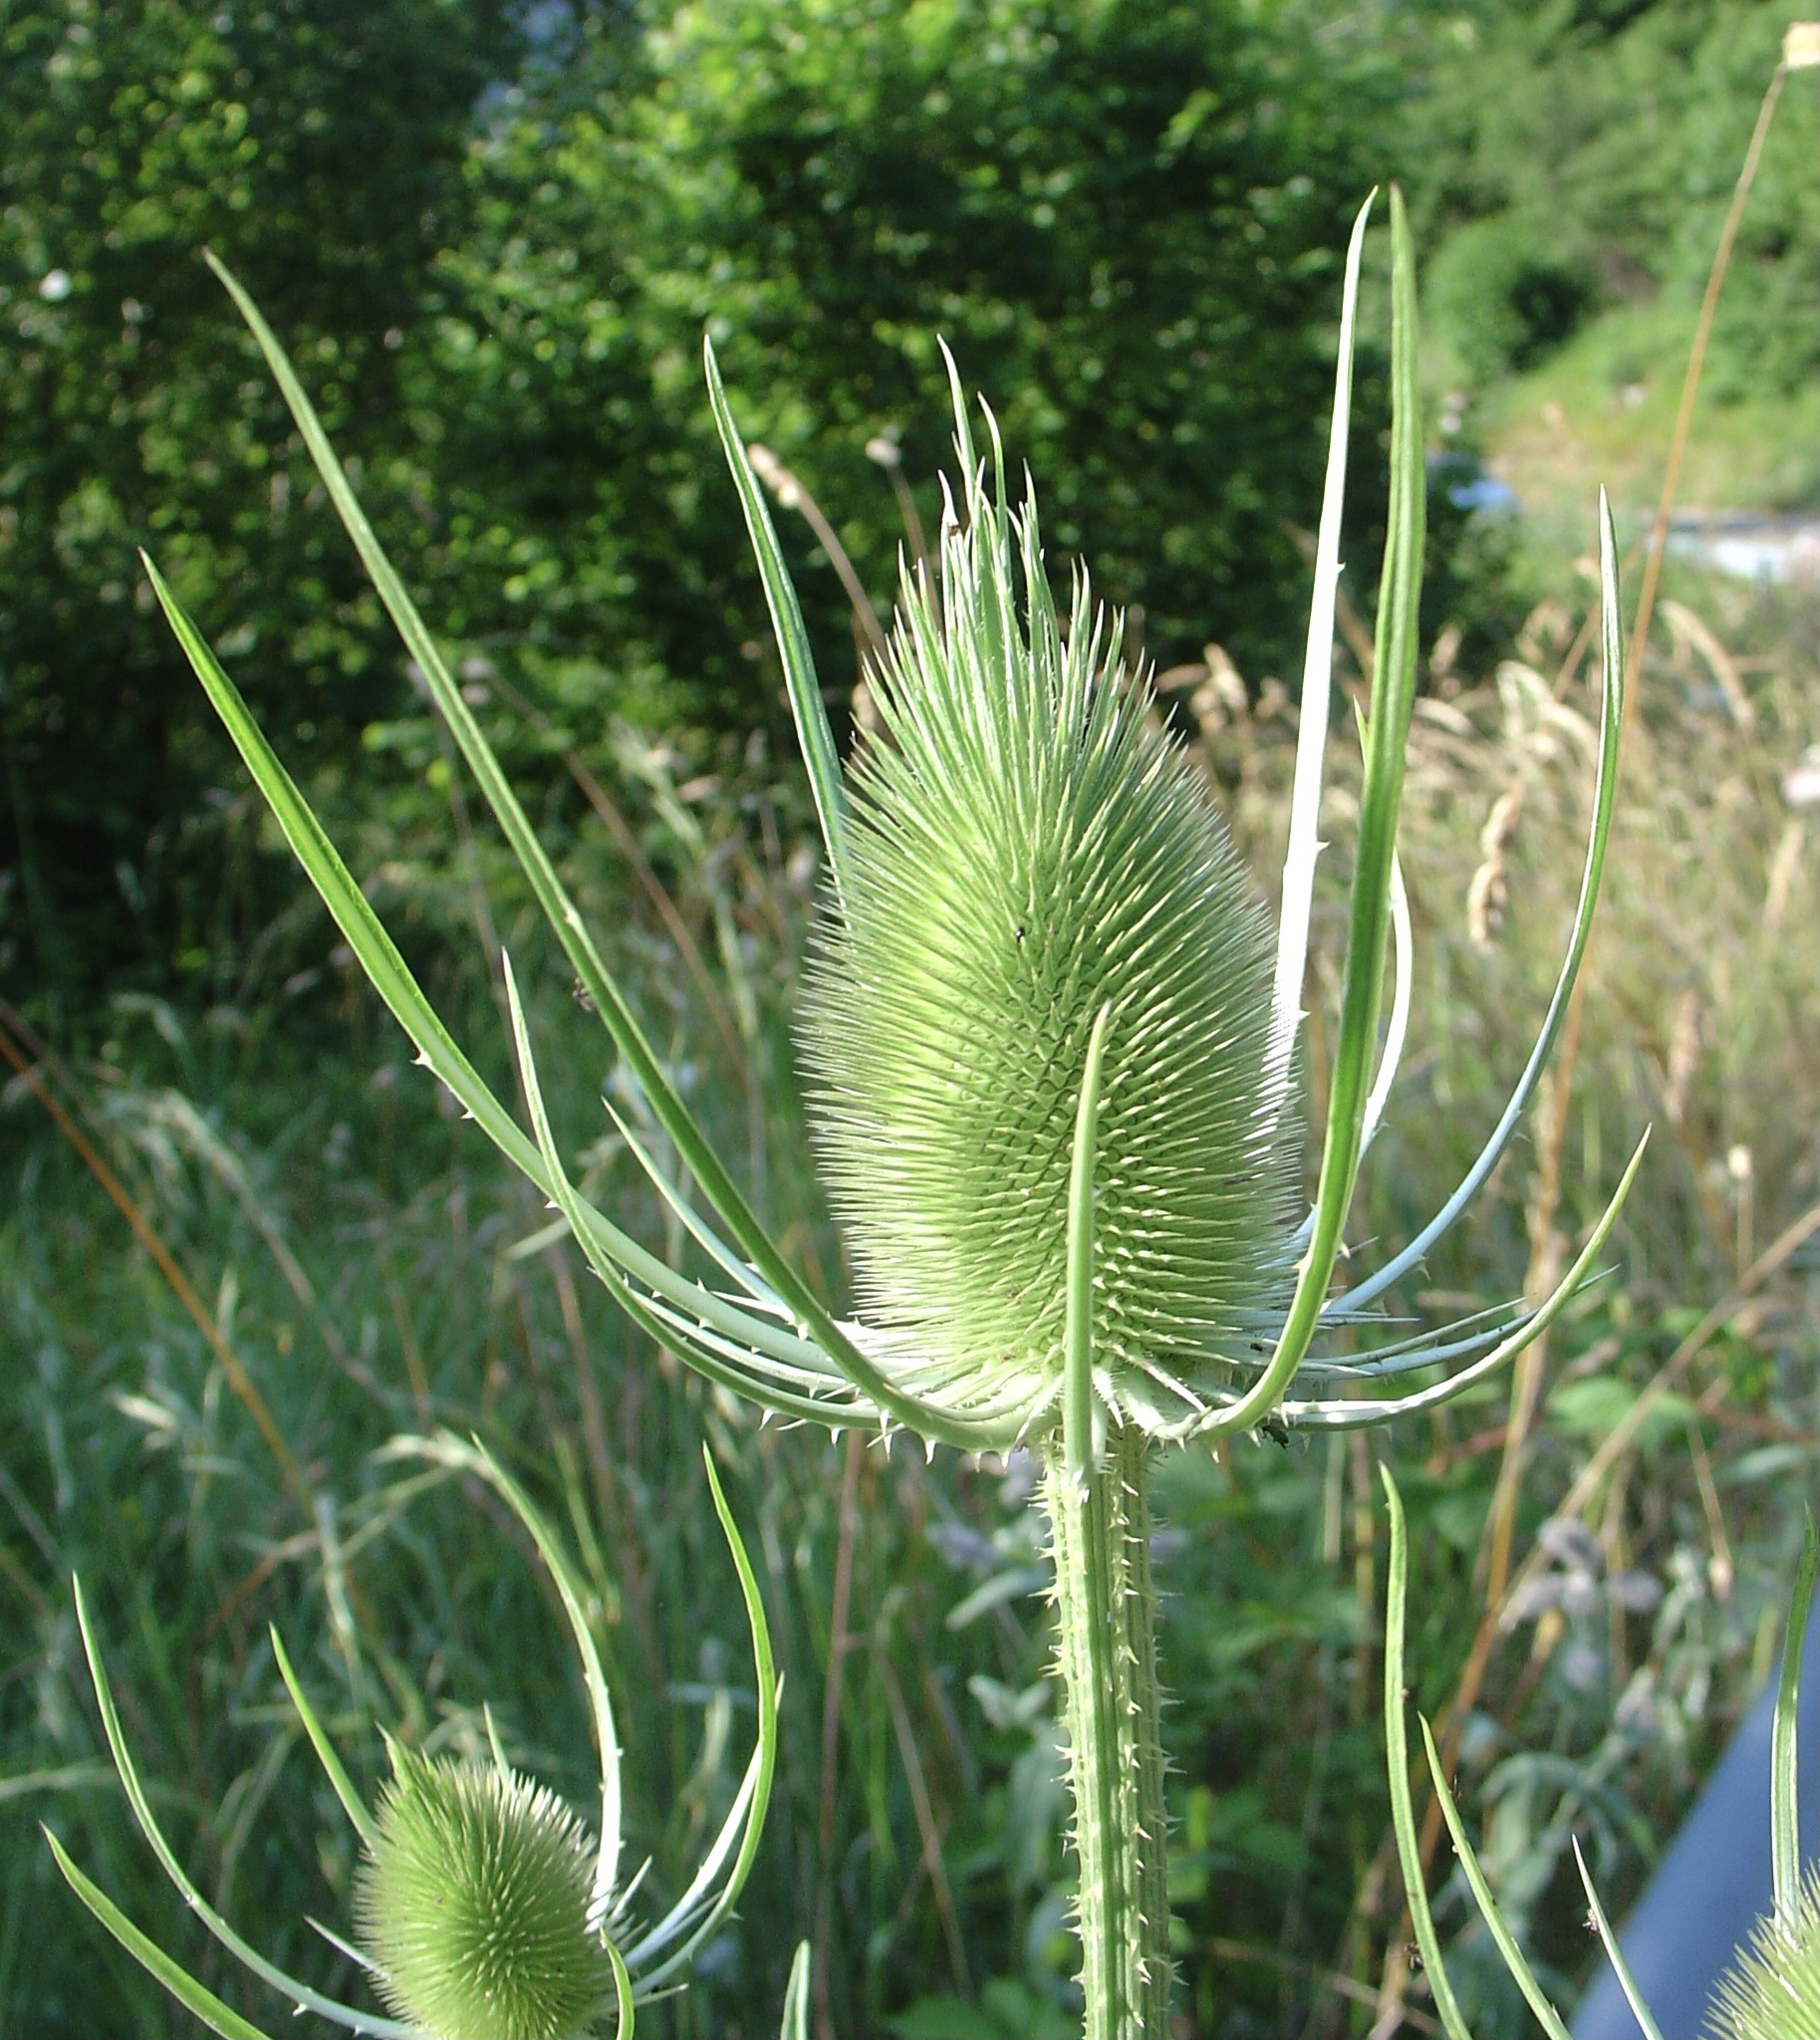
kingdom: Plantae
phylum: Tracheophyta
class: Magnoliopsida
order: Dipsacales
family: Caprifoliaceae
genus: Dipsacus
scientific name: Dipsacus fullonum
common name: Teasel
